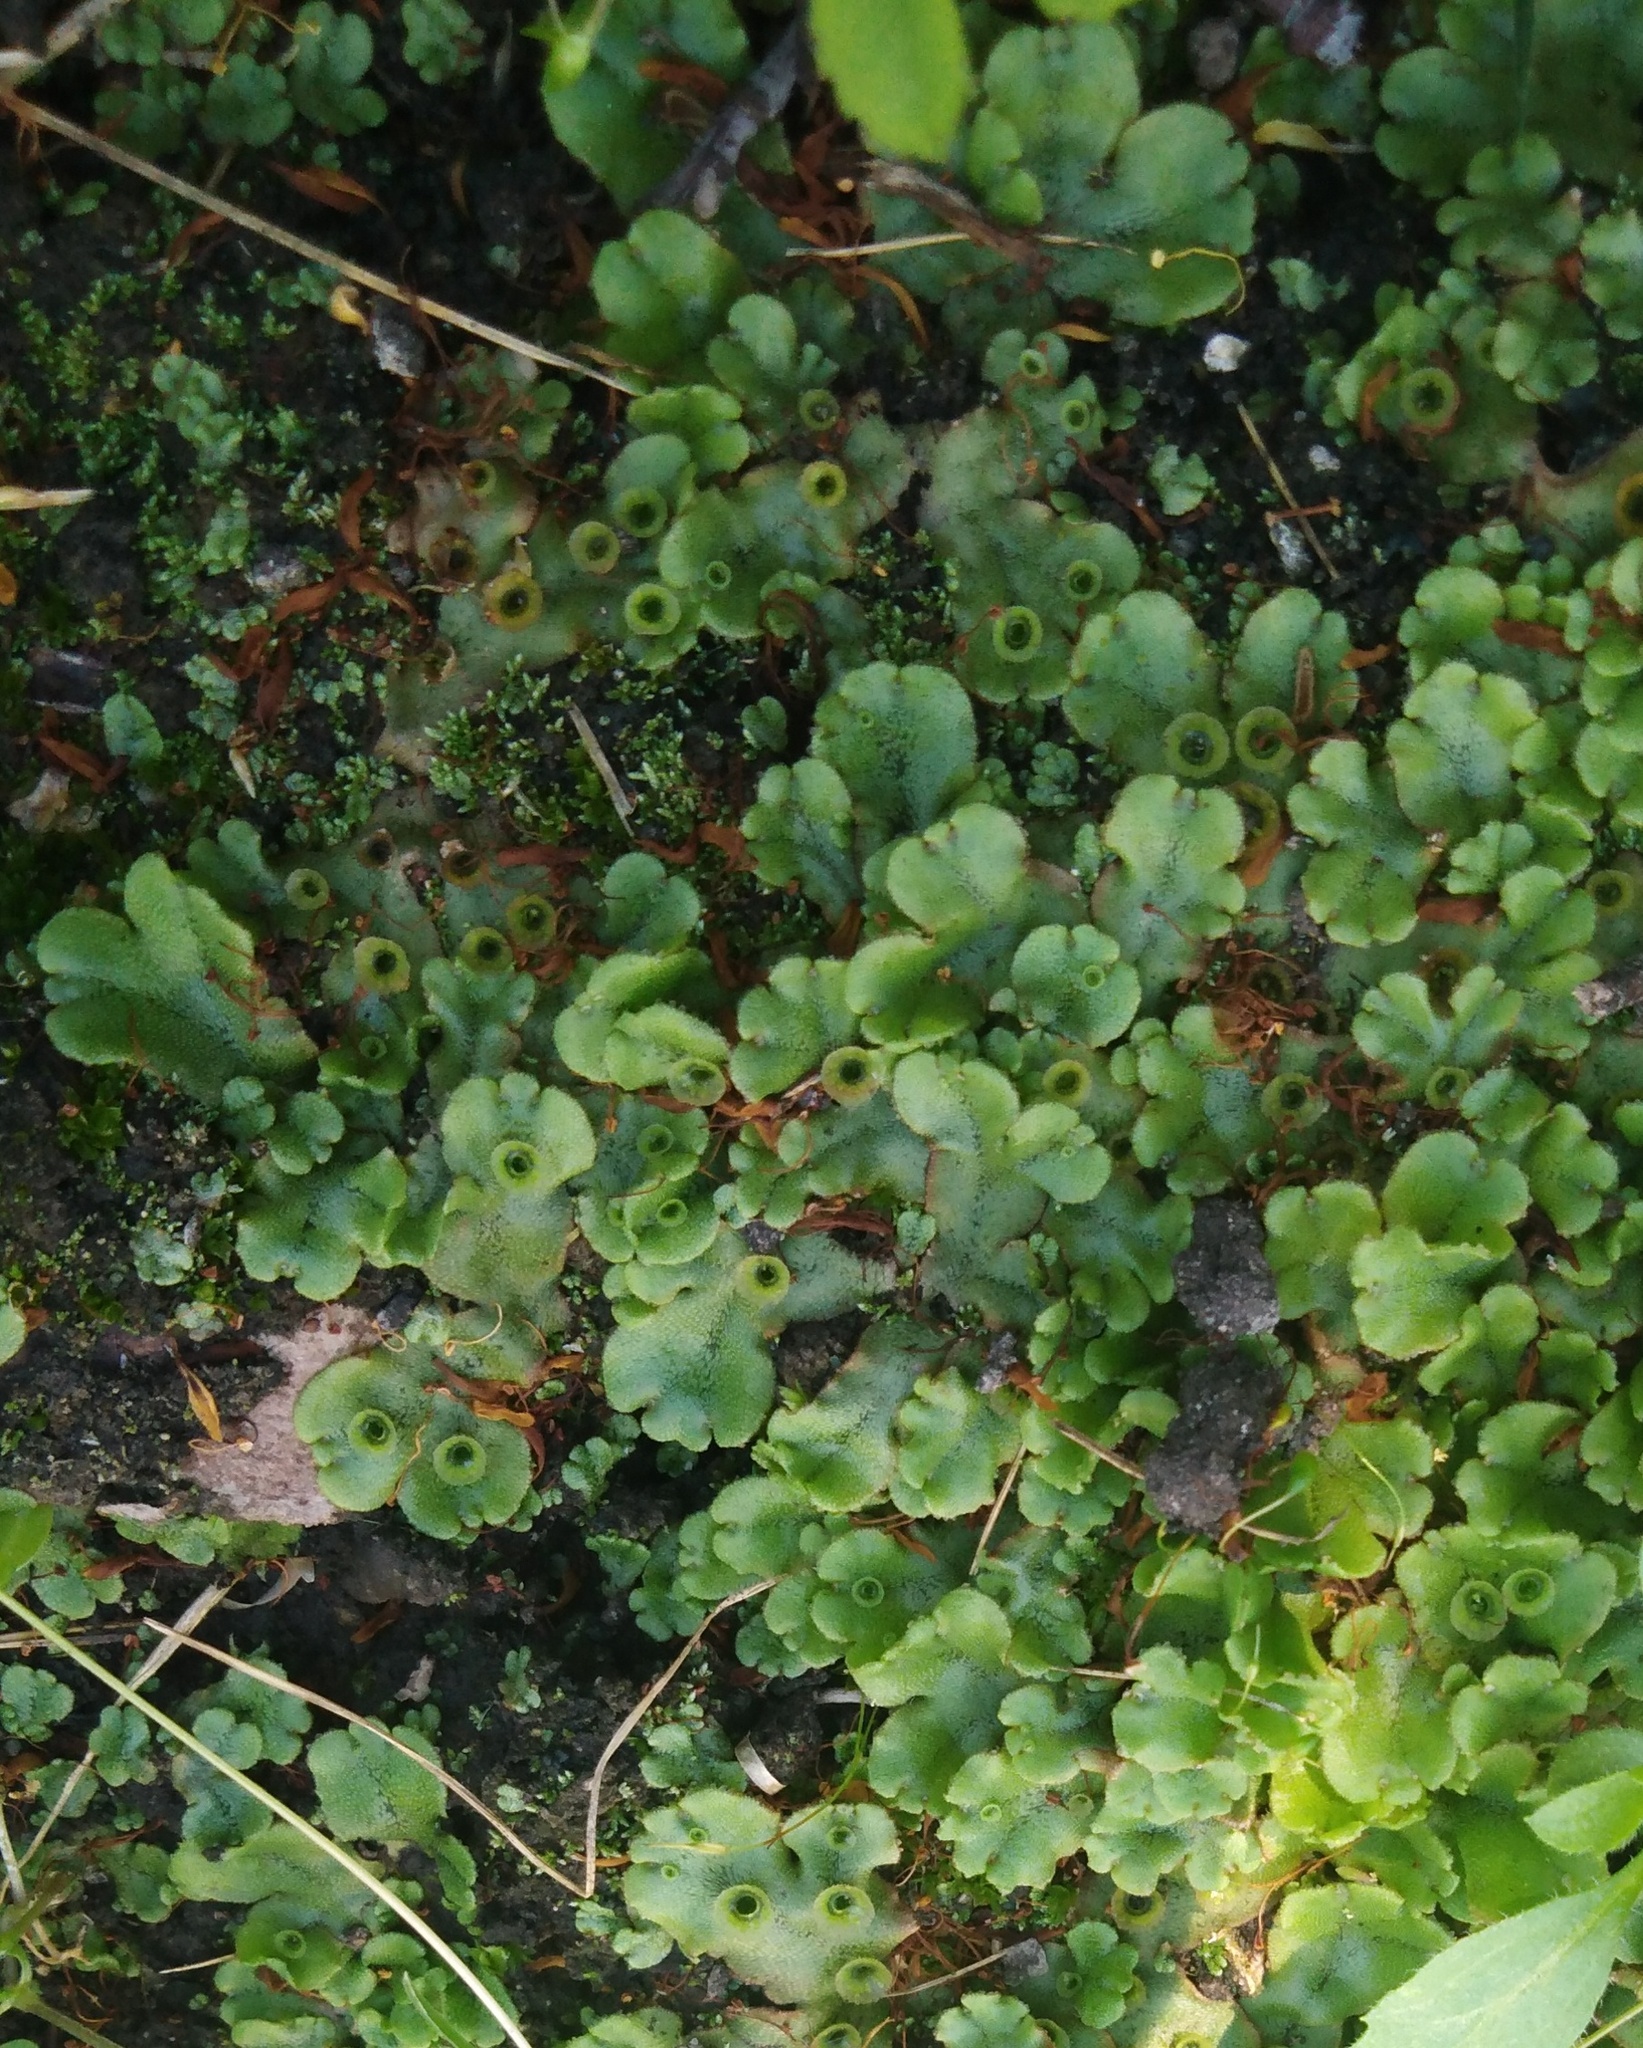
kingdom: Plantae
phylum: Marchantiophyta
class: Marchantiopsida
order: Marchantiales
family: Marchantiaceae
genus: Marchantia
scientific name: Marchantia polymorpha
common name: Common liverwort
